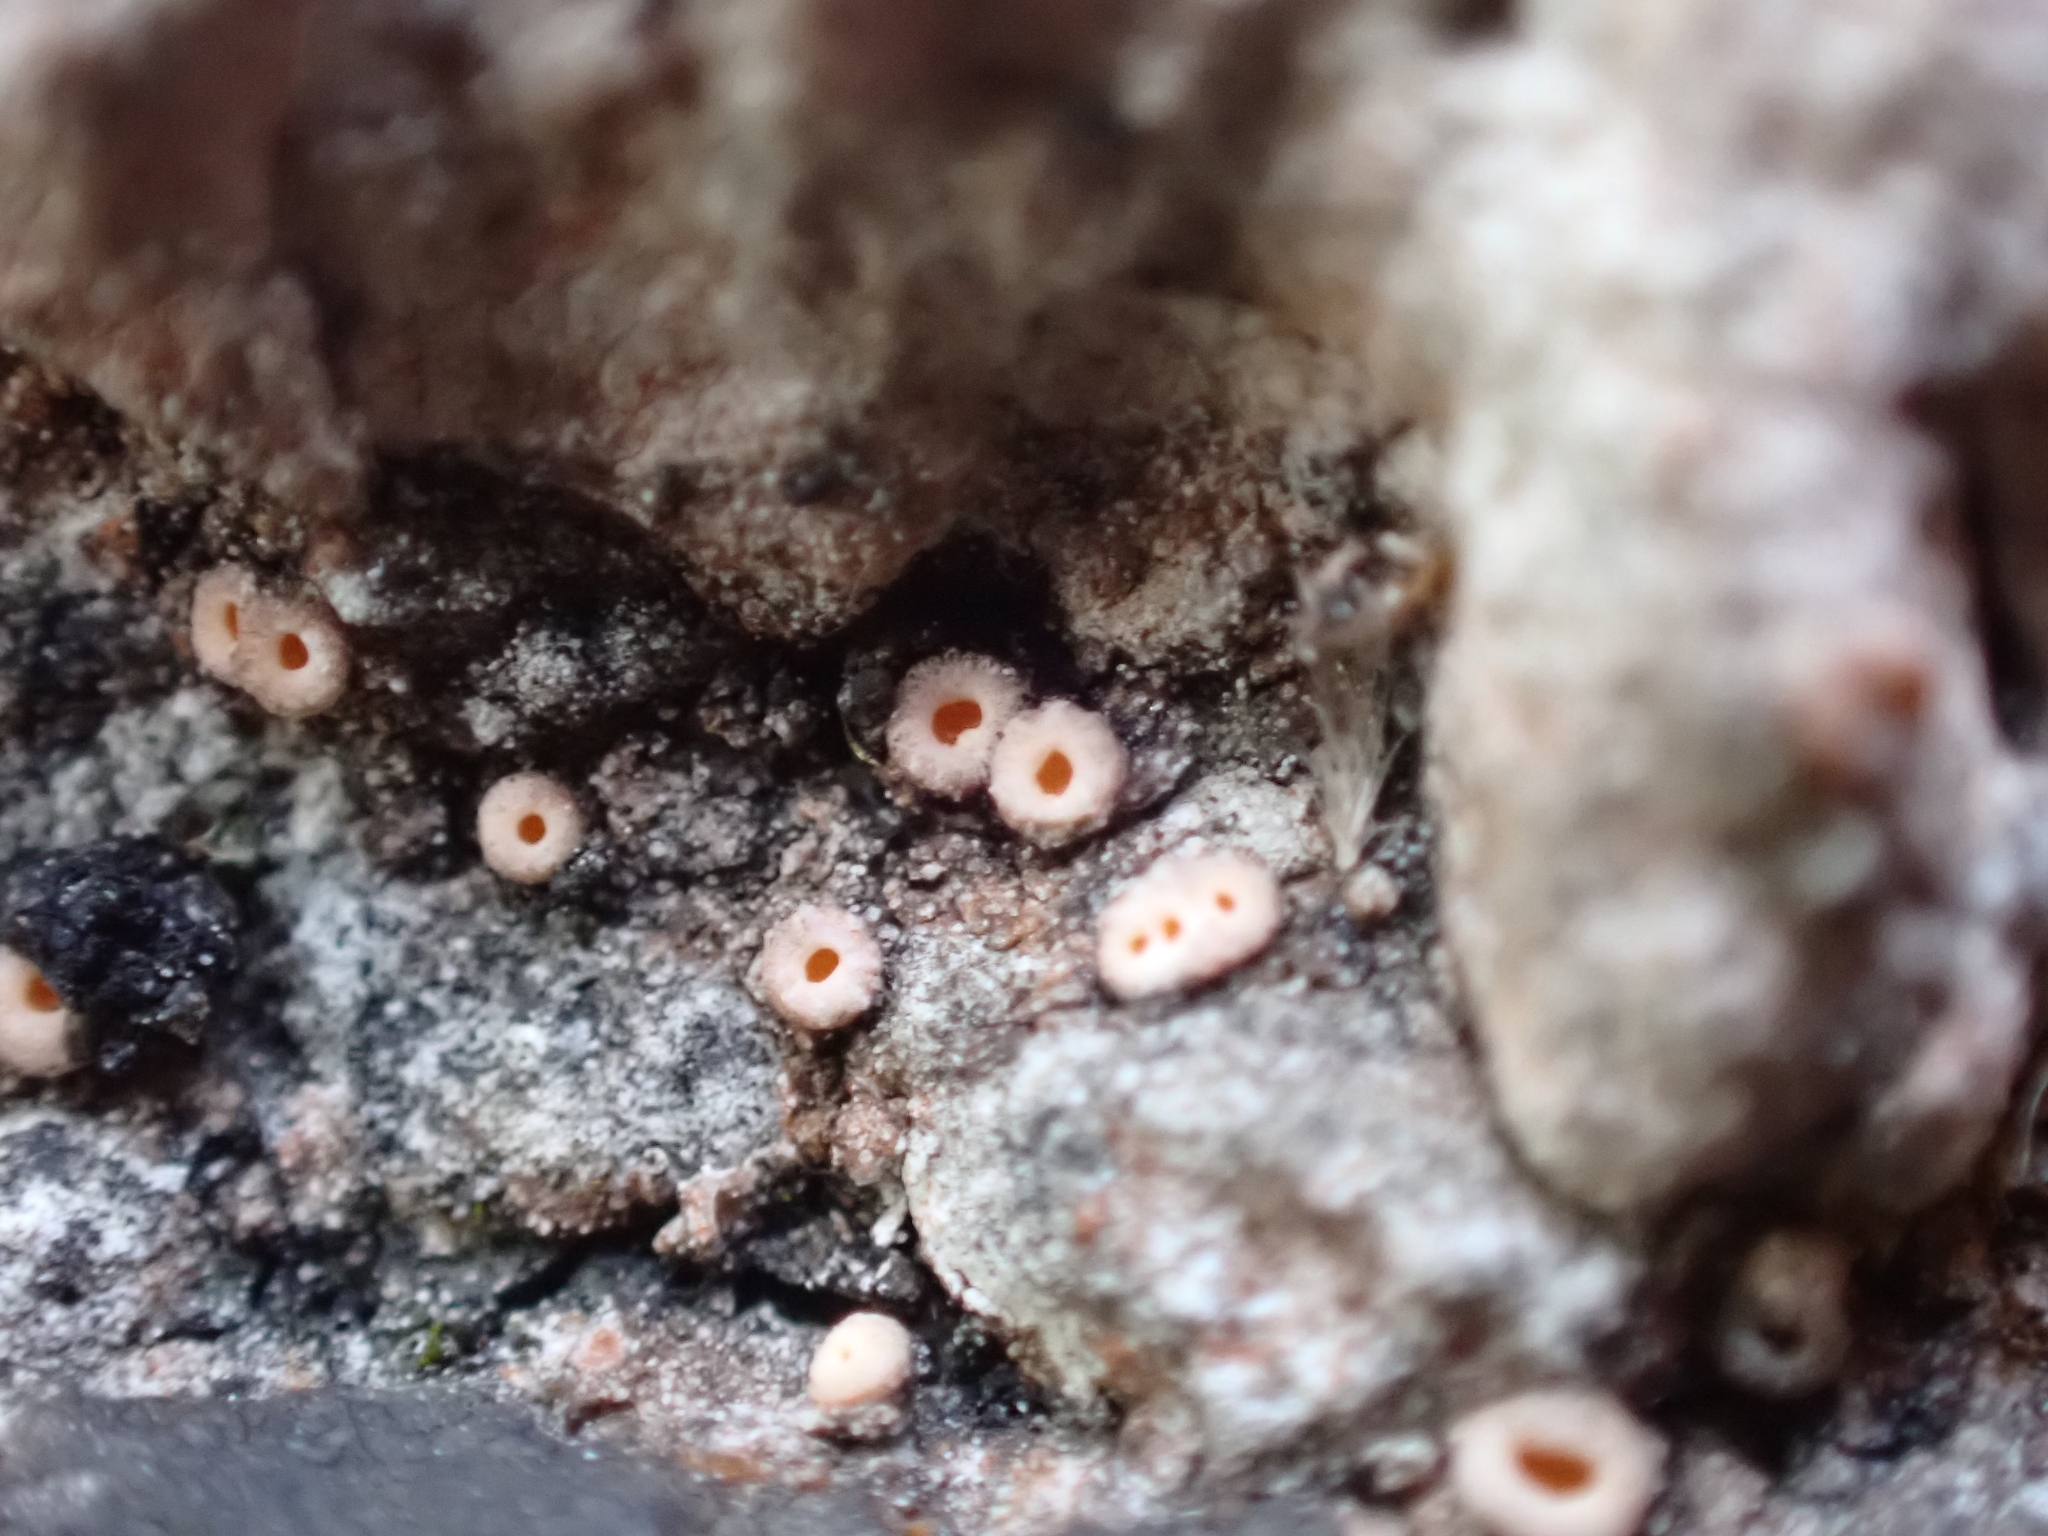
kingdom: Fungi
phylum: Ascomycota
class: Lecanoromycetes
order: Gyalectales
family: Gyalectaceae
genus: Gyalecta
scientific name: Gyalecta jenensis
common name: Rock dimple lichen
